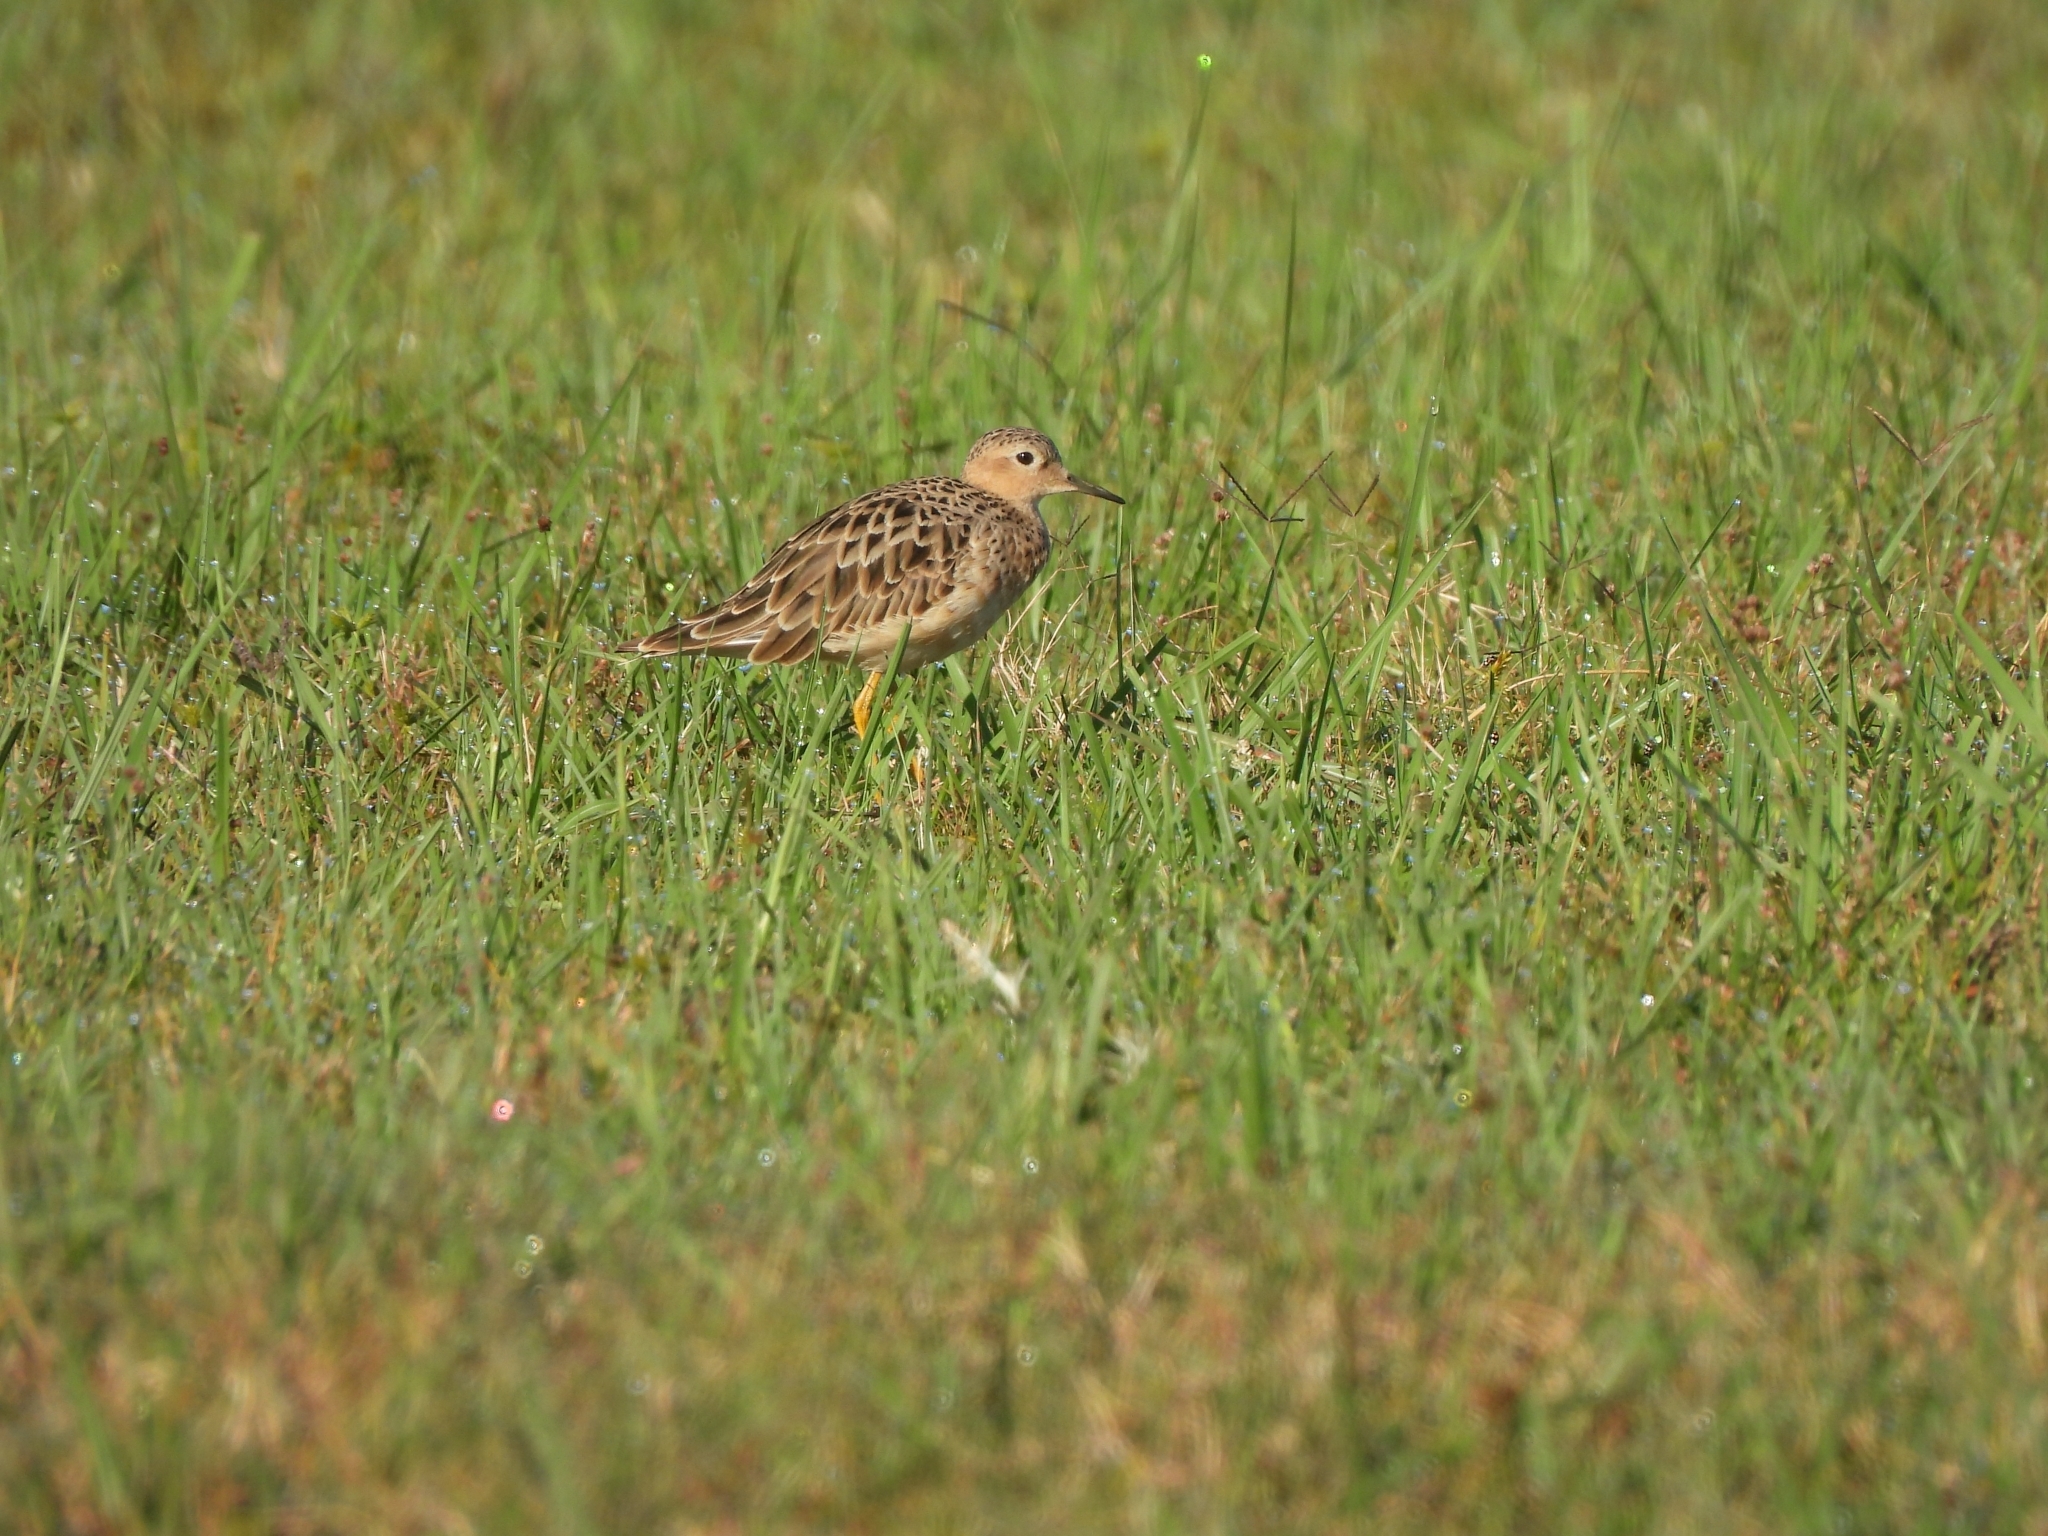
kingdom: Animalia
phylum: Chordata
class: Aves
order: Charadriiformes
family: Scolopacidae
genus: Calidris
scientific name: Calidris subruficollis
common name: Buff-breasted sandpiper
